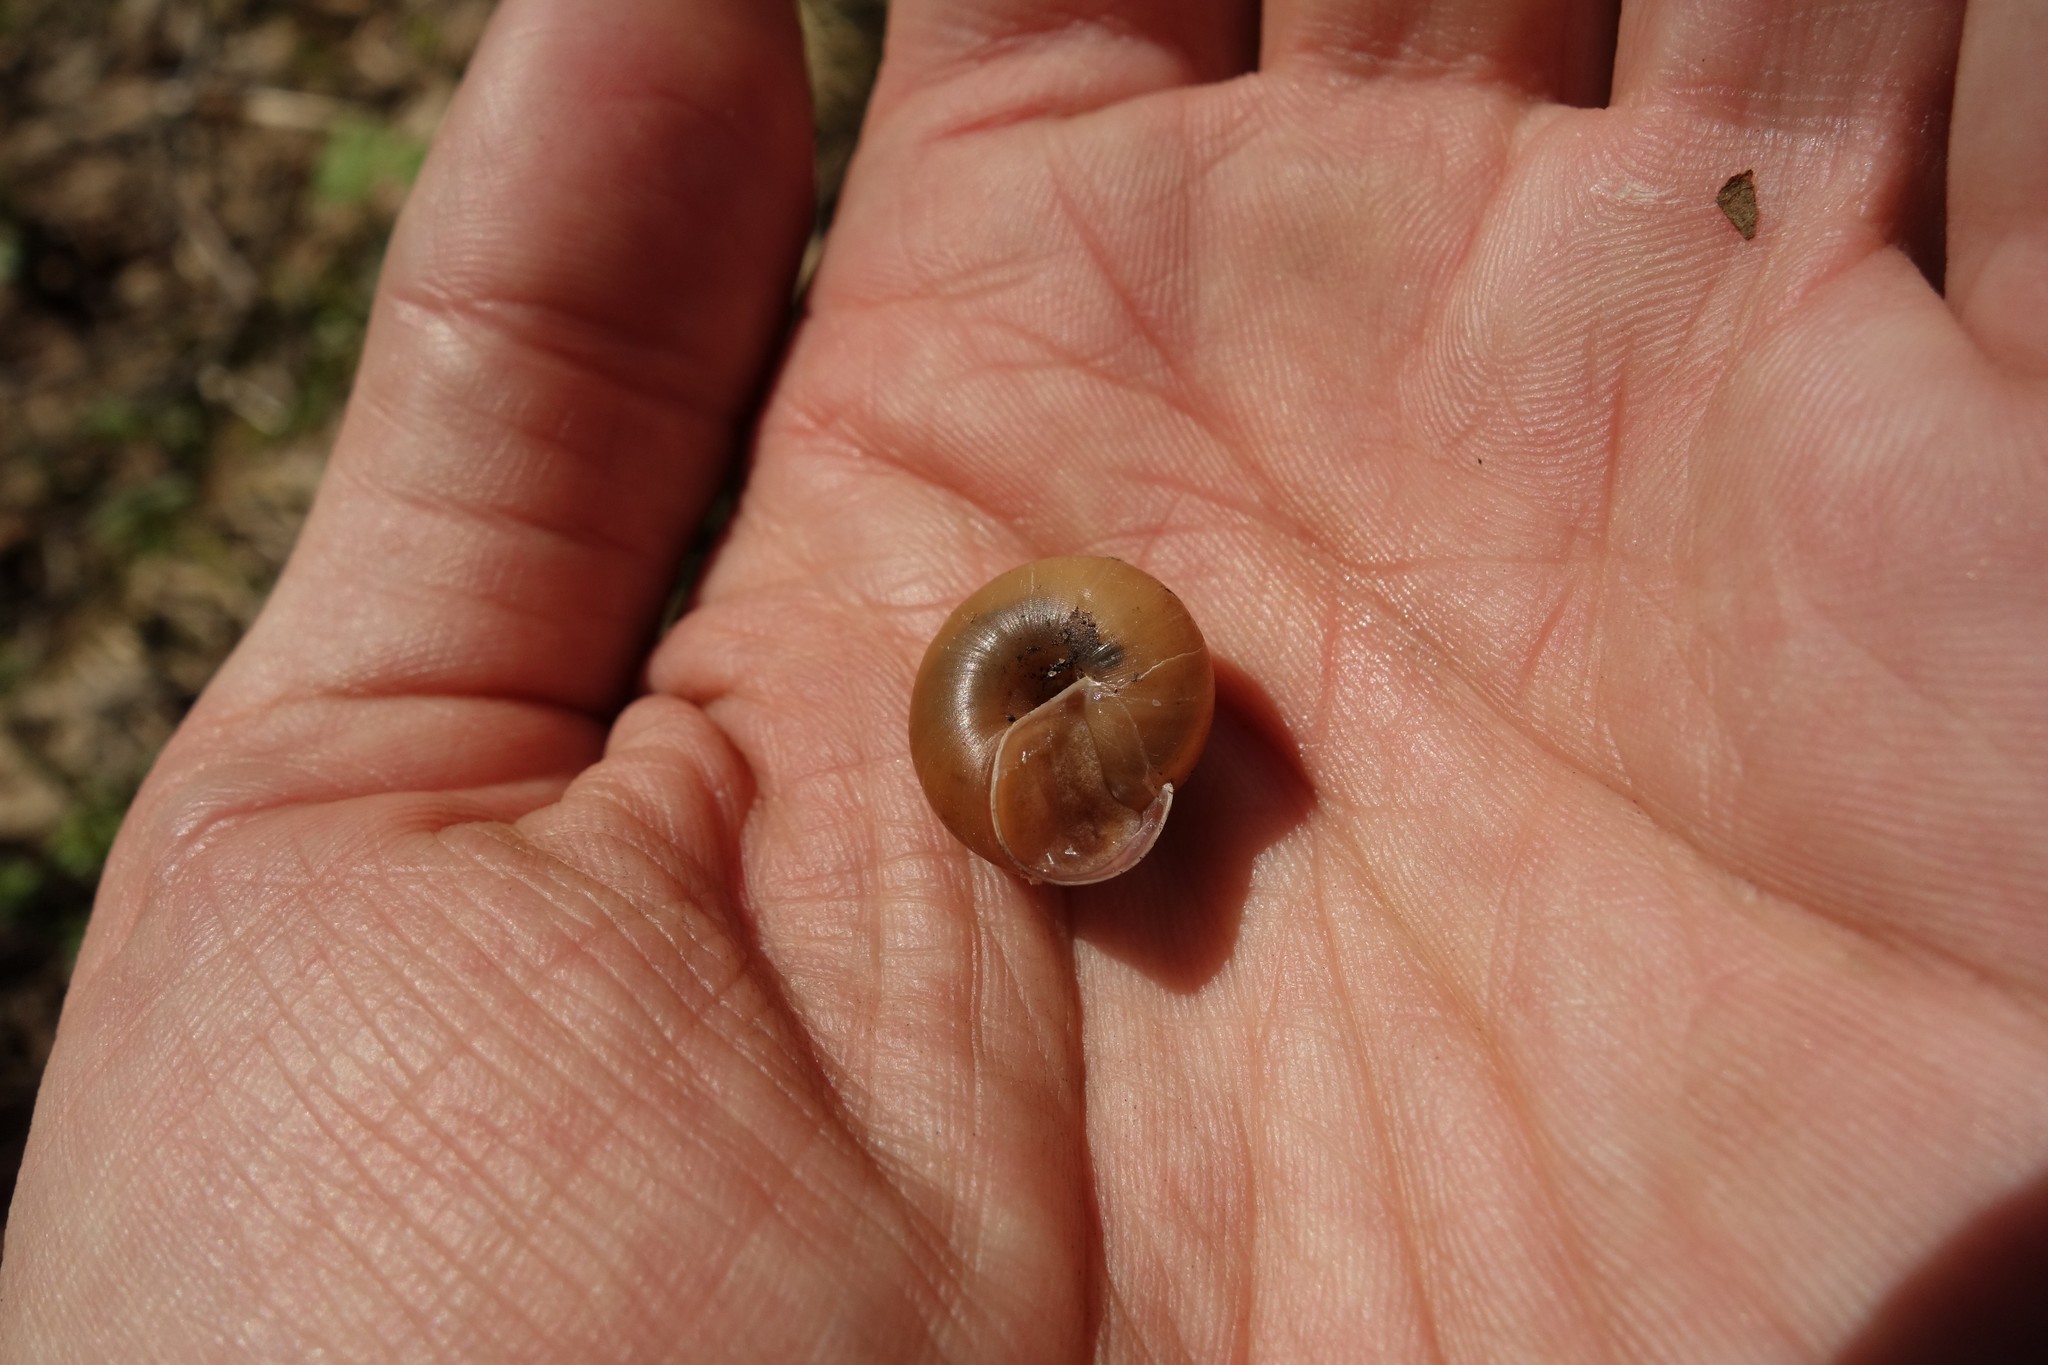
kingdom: Animalia
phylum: Mollusca
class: Gastropoda
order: Stylommatophora
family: Camaenidae
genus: Fruticicola
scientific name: Fruticicola fruticum
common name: Bush snail
